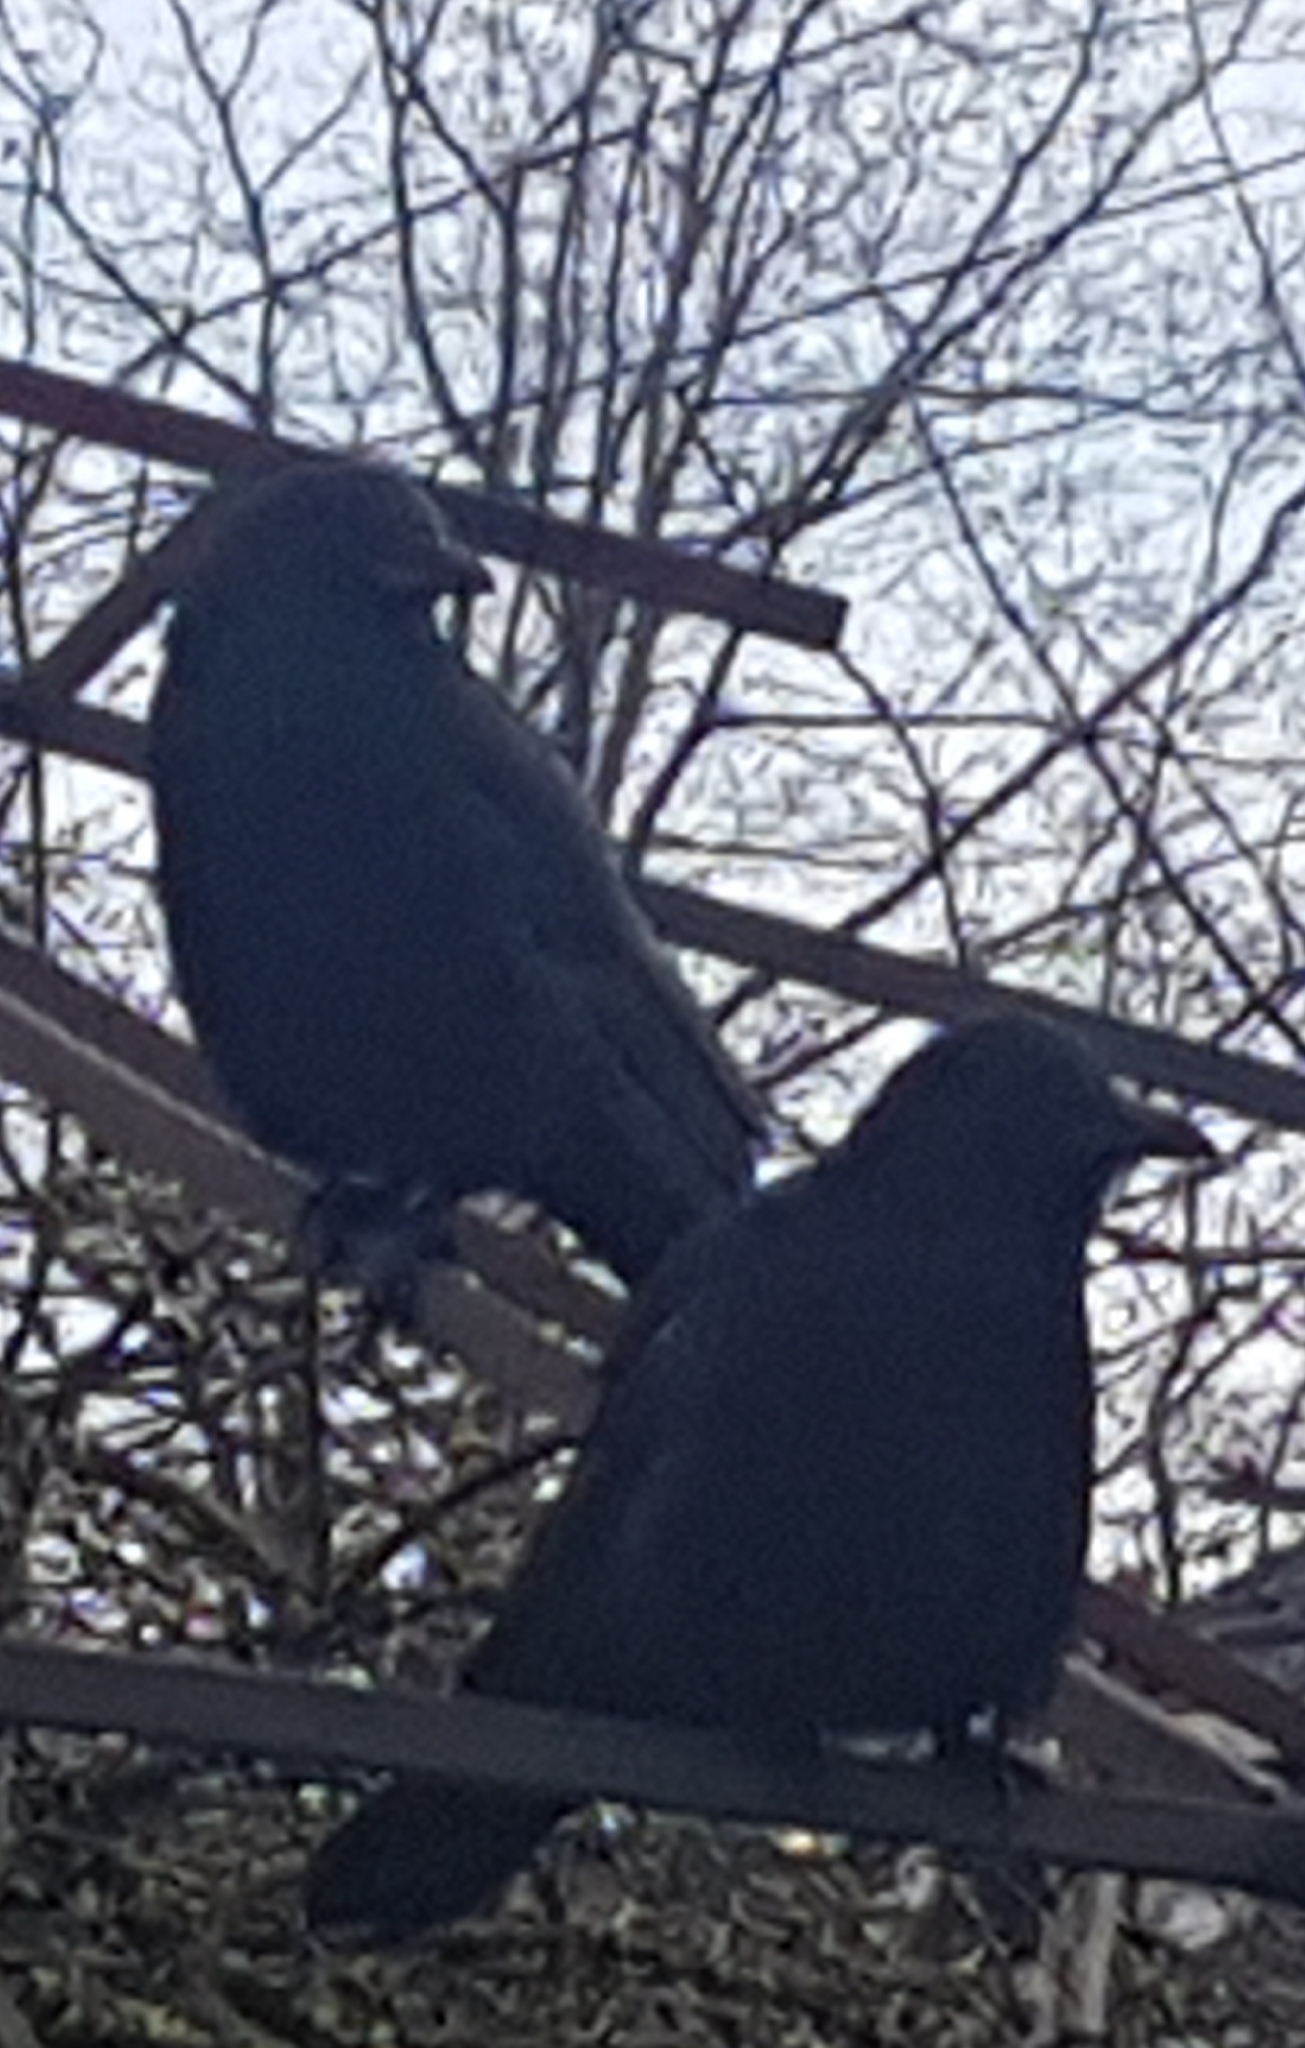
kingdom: Animalia
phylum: Chordata
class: Aves
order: Passeriformes
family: Corvidae
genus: Corvus
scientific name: Corvus brachyrhynchos
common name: American crow
